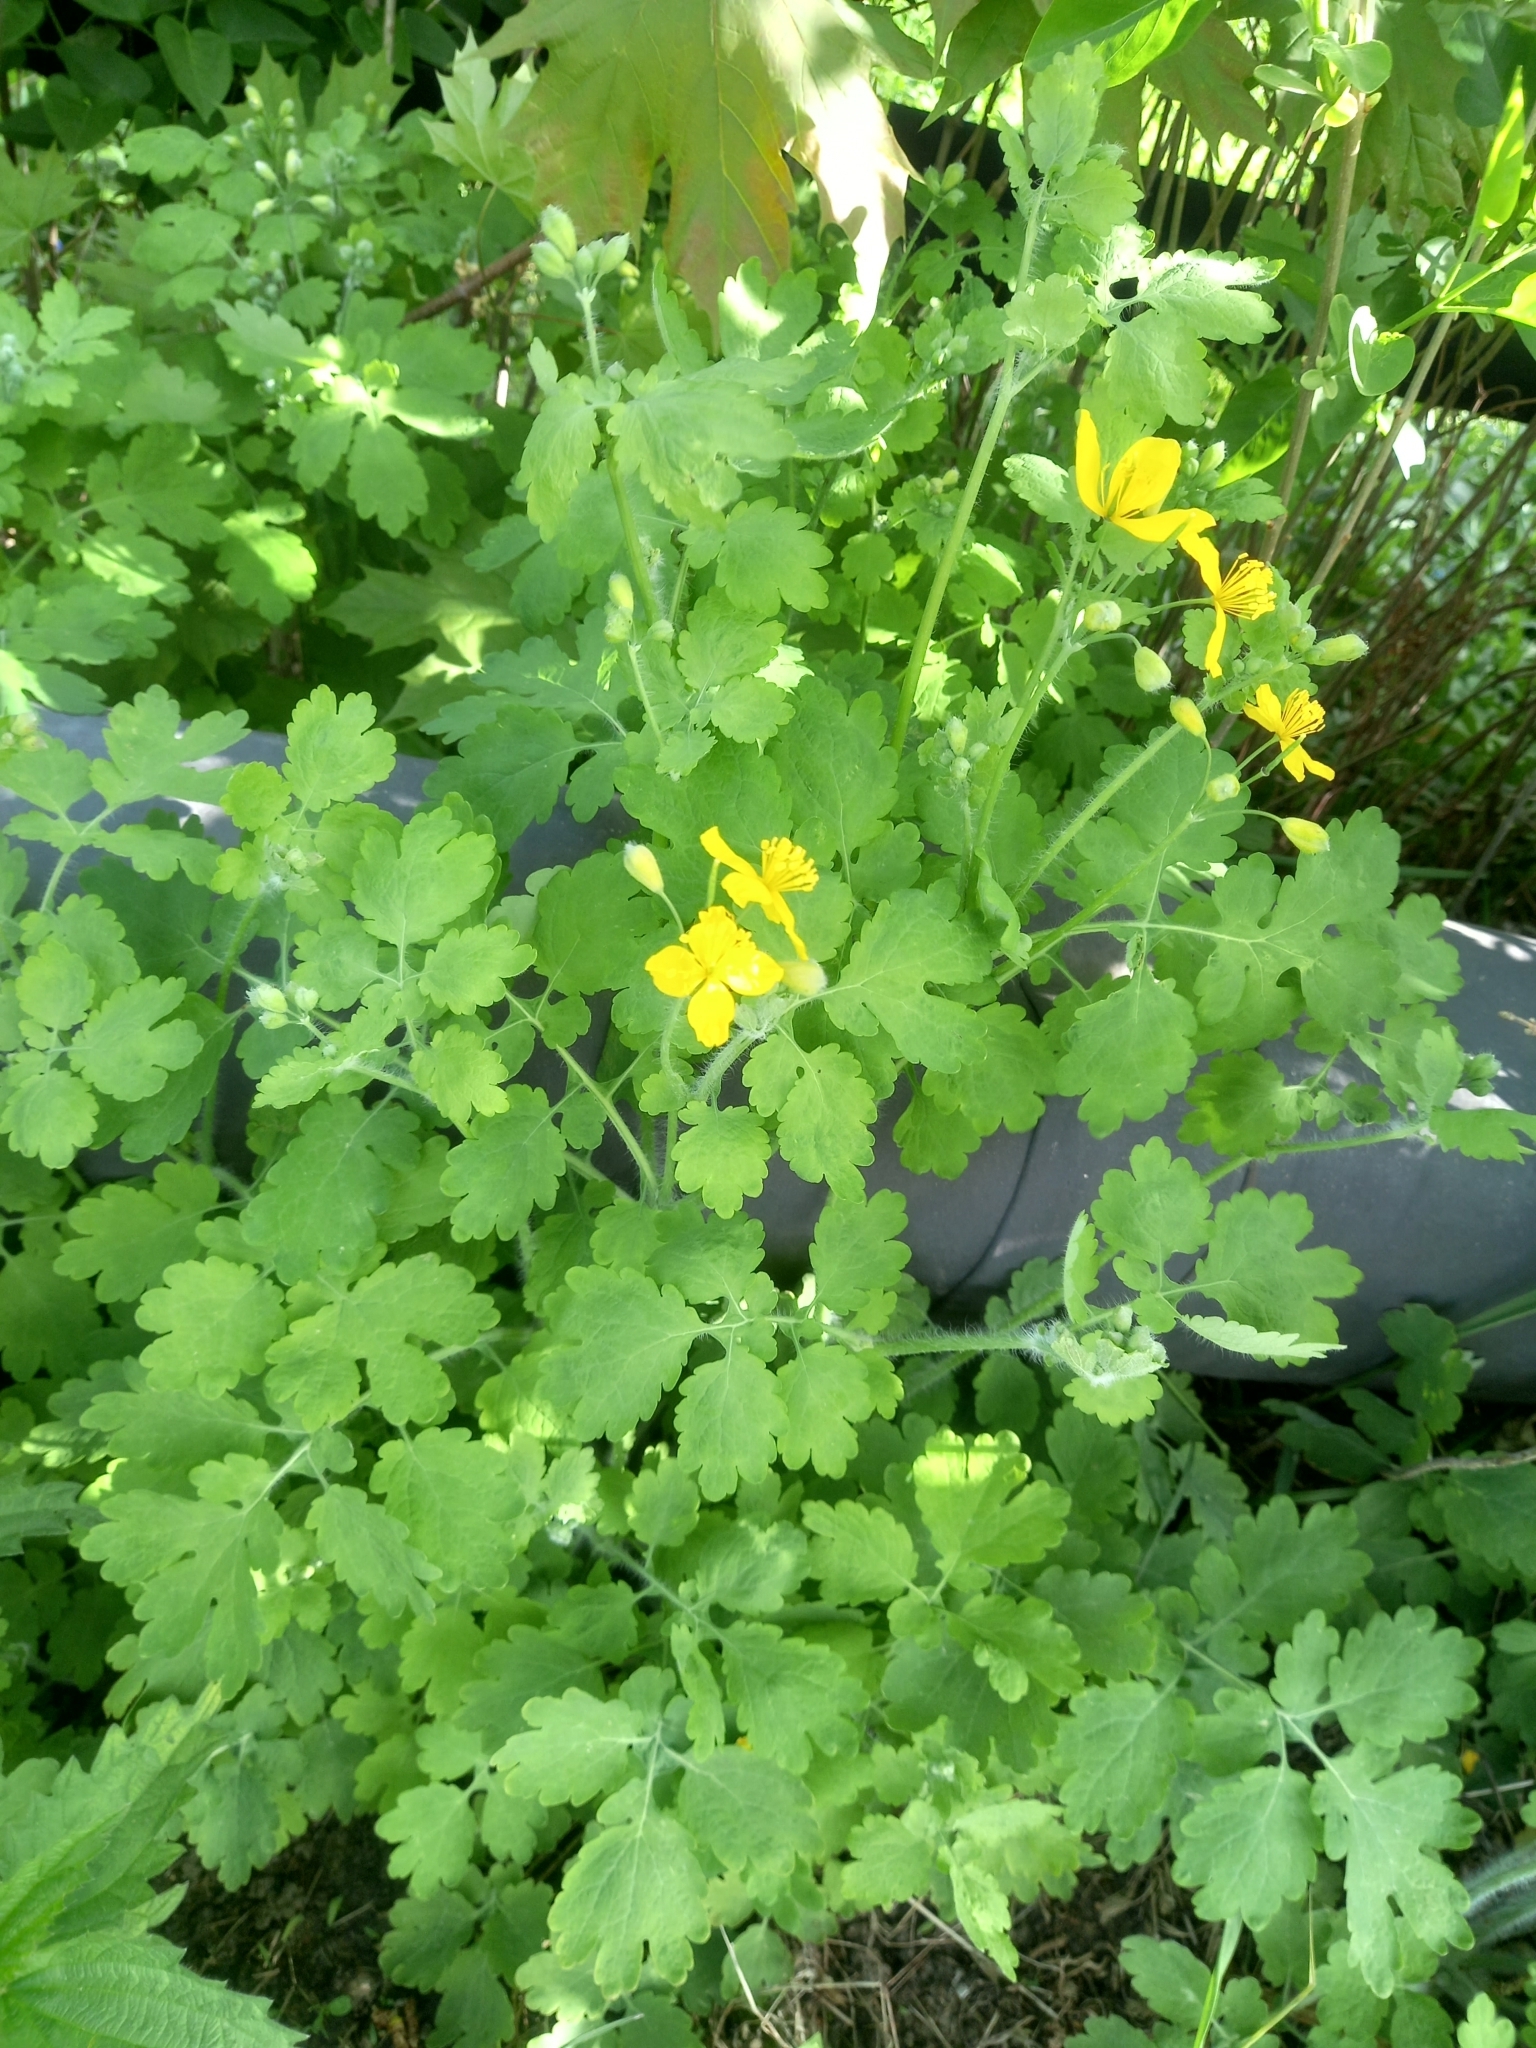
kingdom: Plantae
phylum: Tracheophyta
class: Magnoliopsida
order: Ranunculales
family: Papaveraceae
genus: Chelidonium
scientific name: Chelidonium majus
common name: Greater celandine
